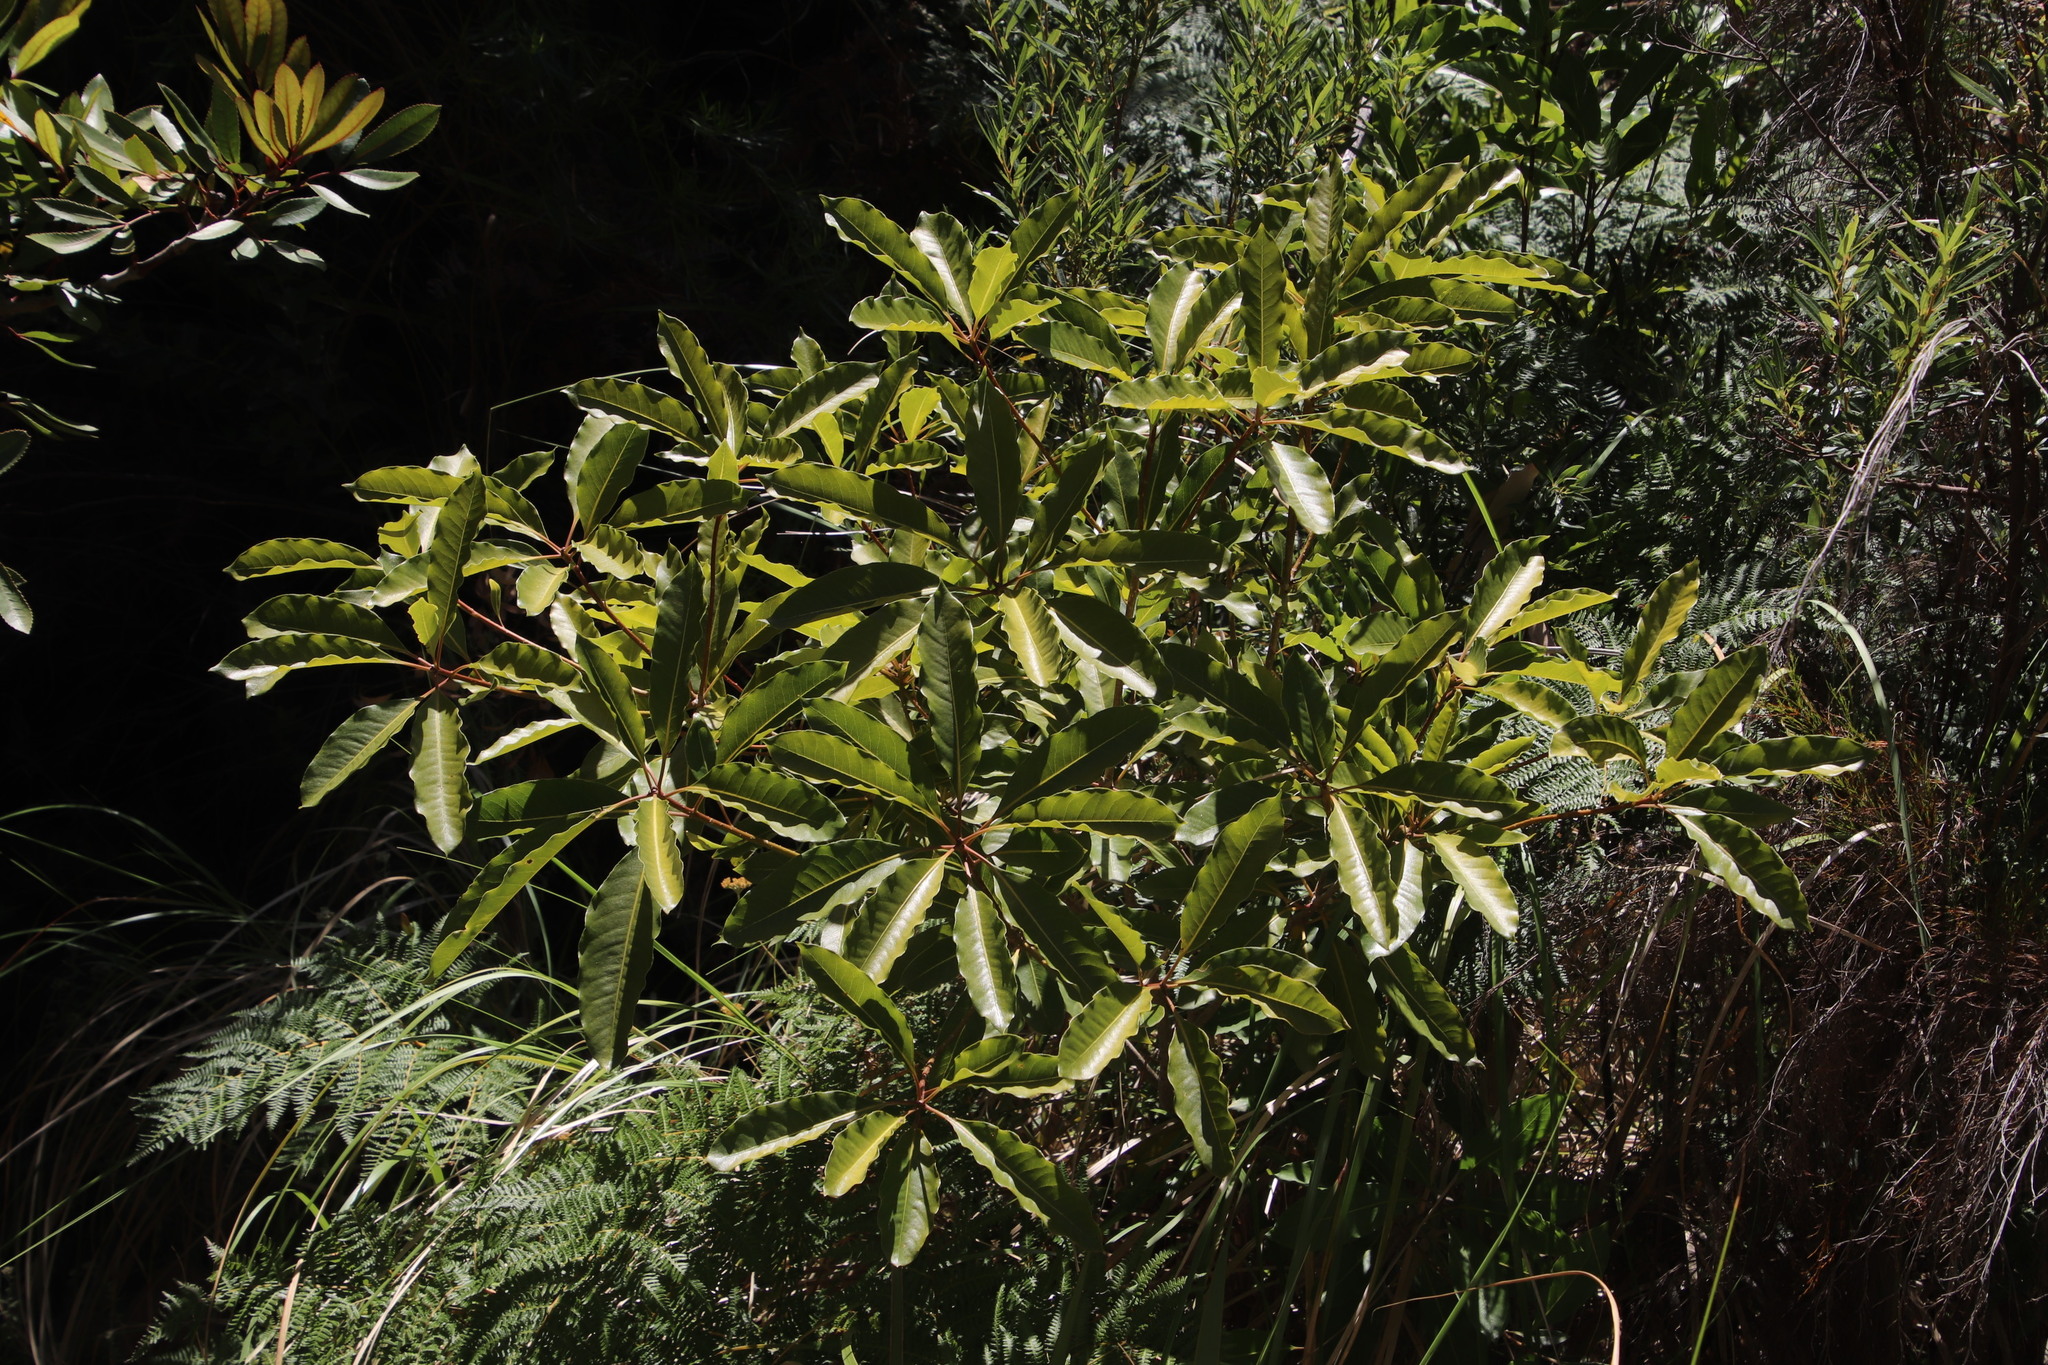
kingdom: Plantae
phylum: Tracheophyta
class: Magnoliopsida
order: Apiales
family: Pittosporaceae
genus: Pittosporum
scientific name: Pittosporum undulatum
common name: Australian cheesewood
